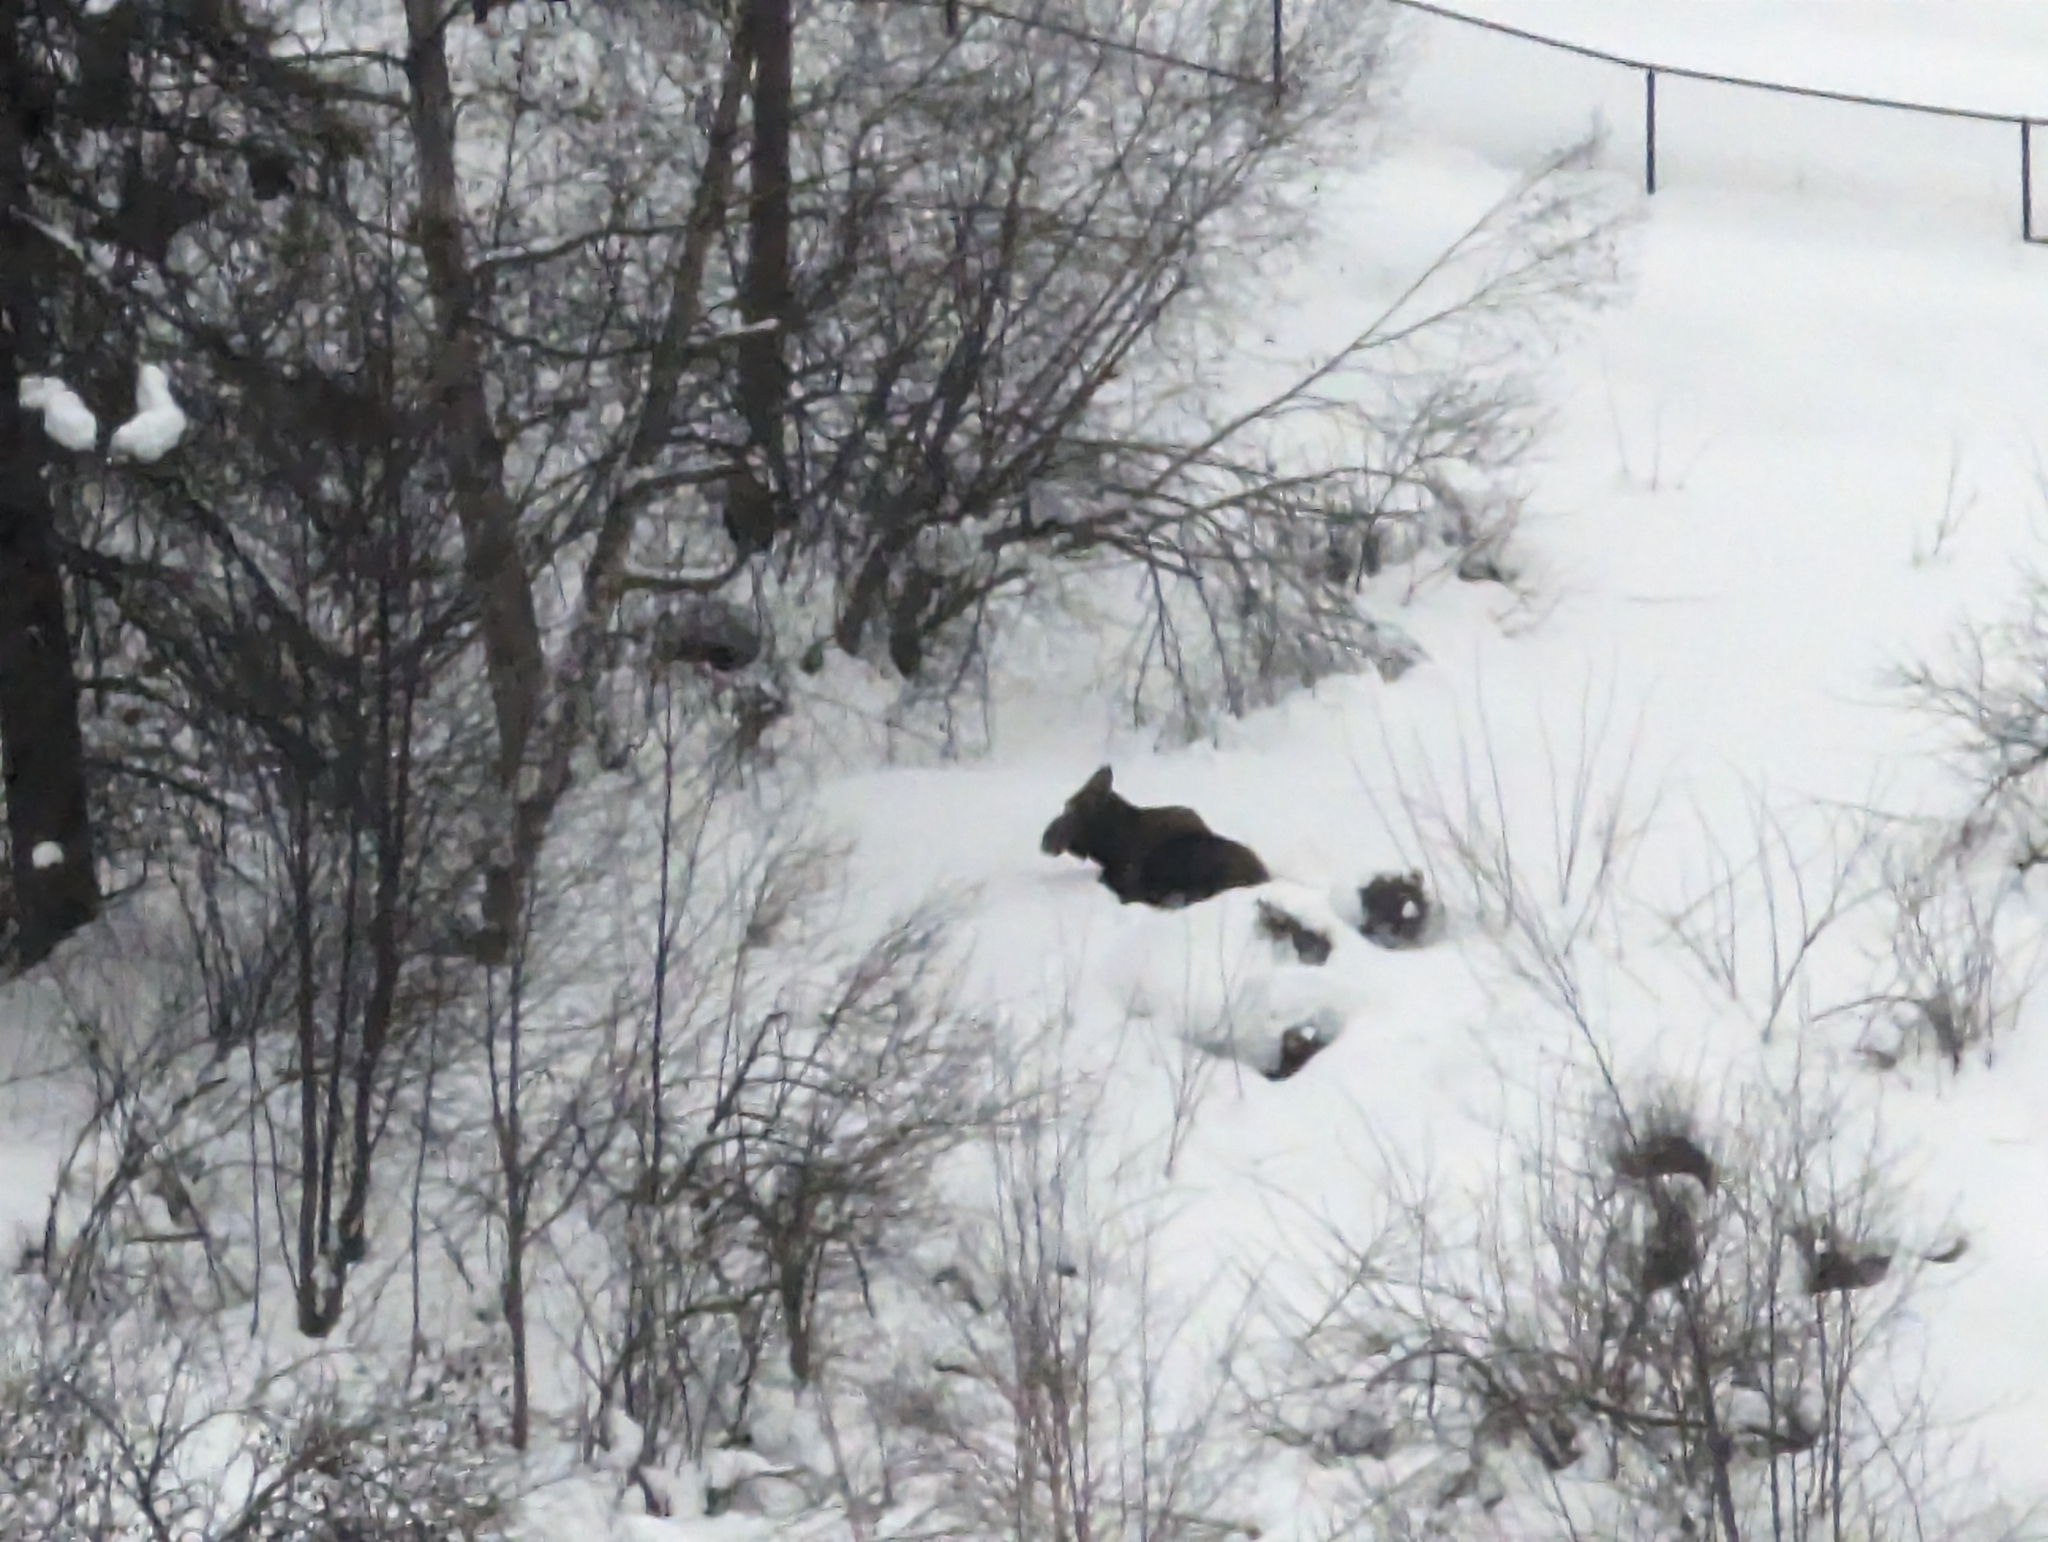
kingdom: Animalia
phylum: Chordata
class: Mammalia
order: Artiodactyla
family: Cervidae
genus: Alces
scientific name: Alces alces
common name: Moose
